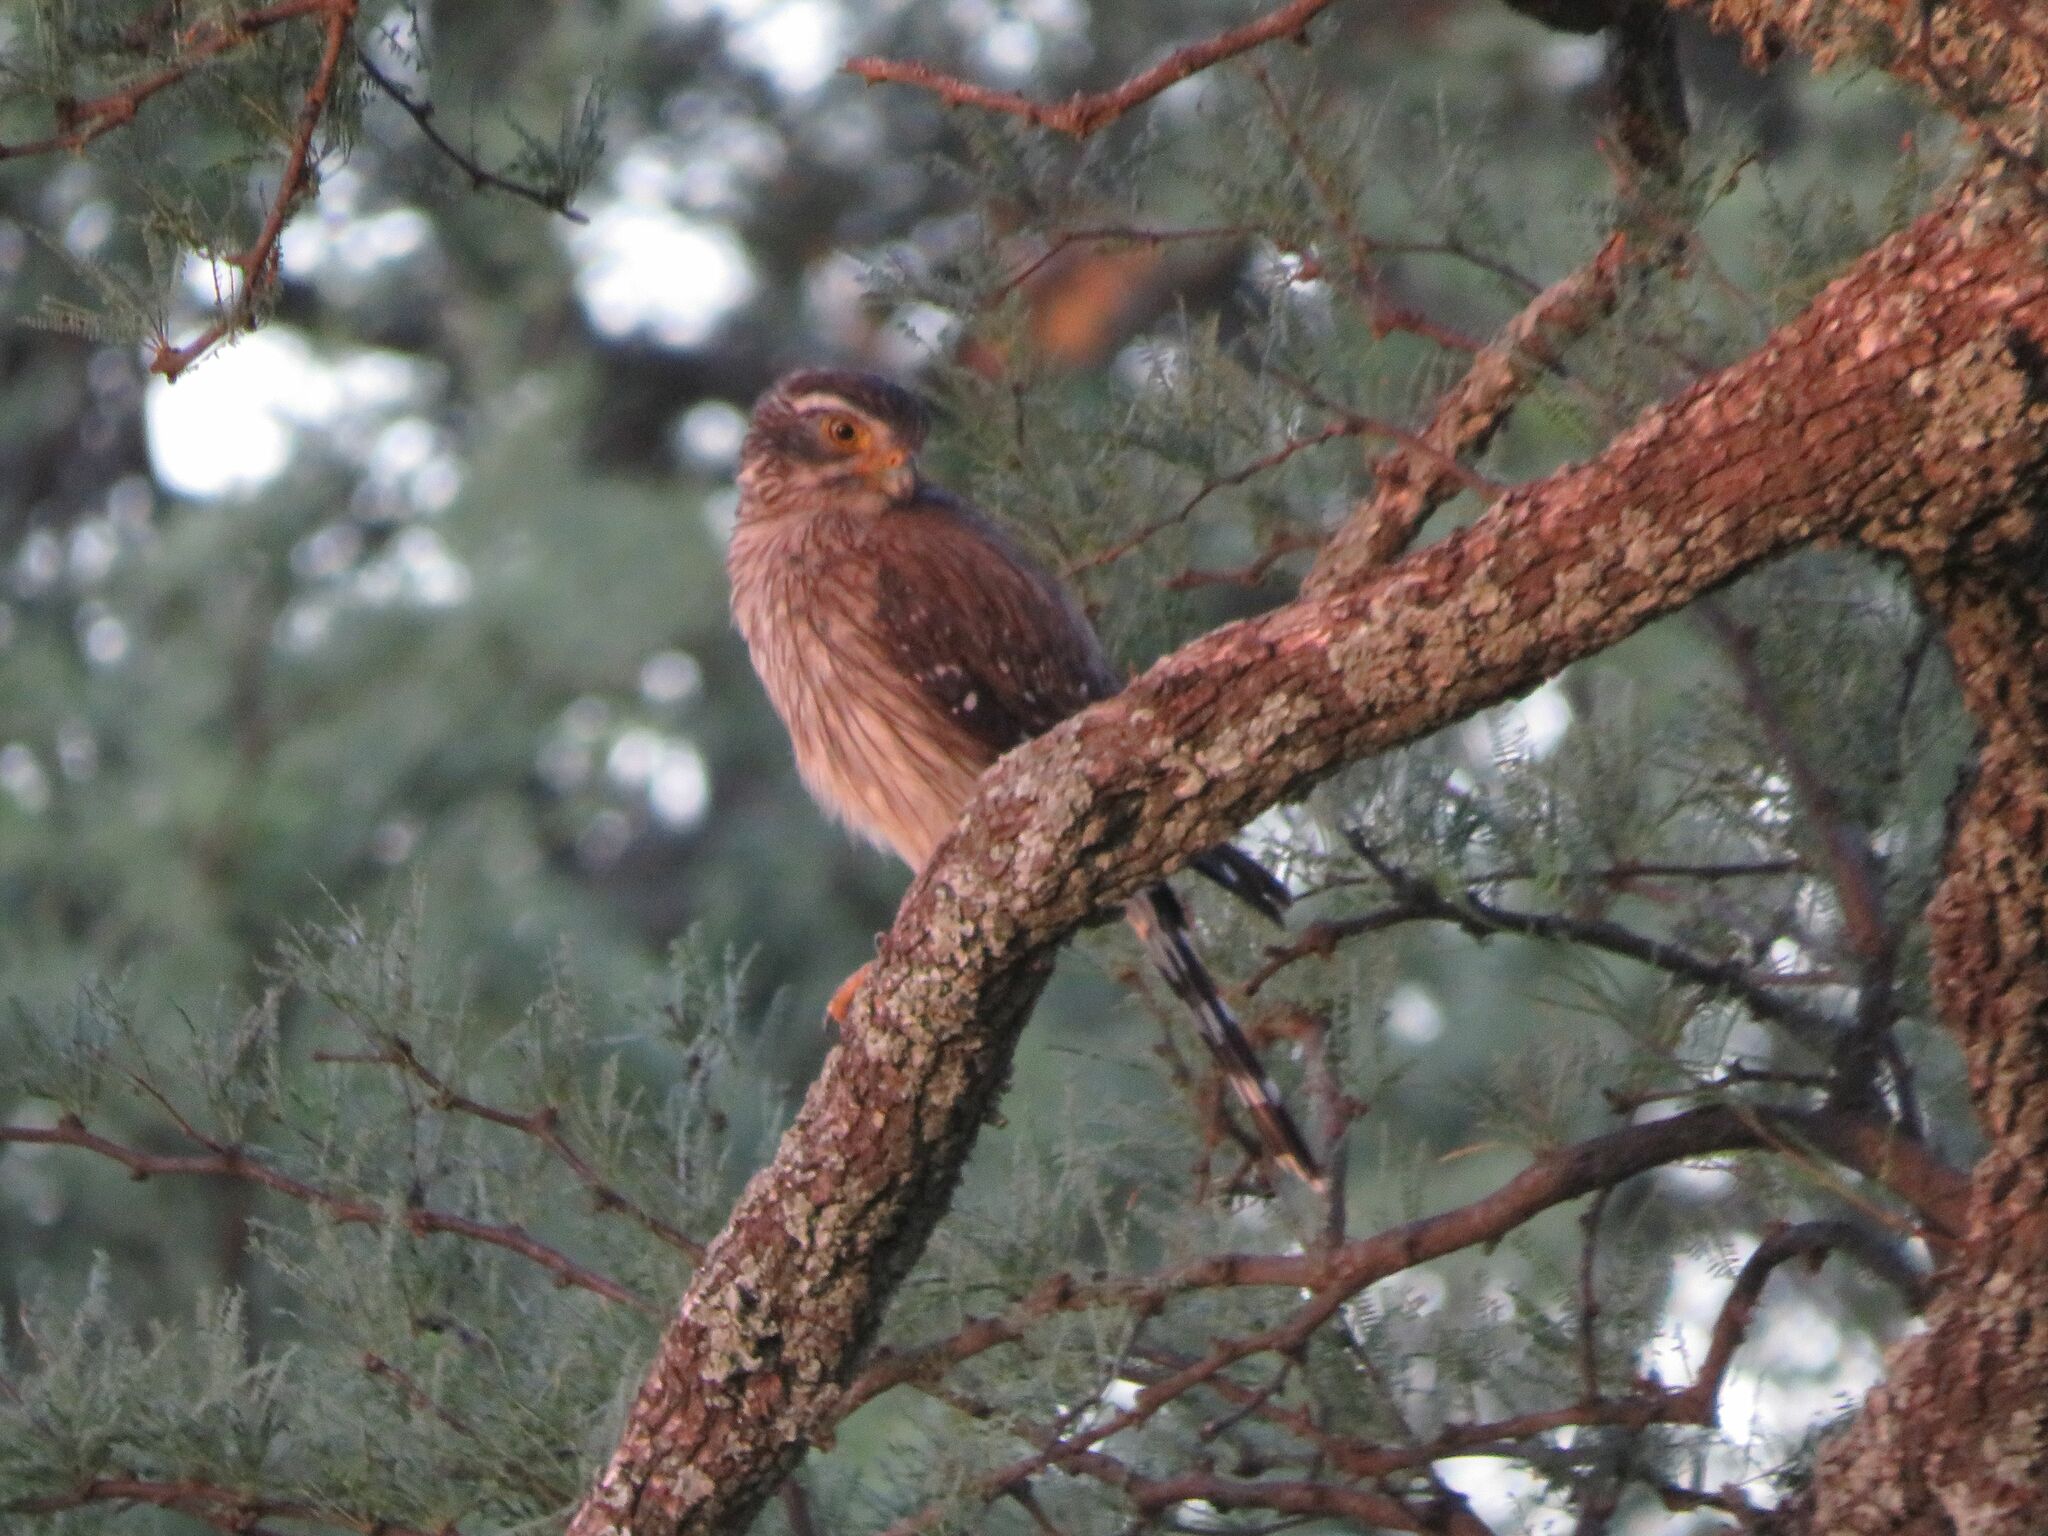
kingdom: Animalia
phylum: Chordata
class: Aves
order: Falconiformes
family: Falconidae
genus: Spiziapteryx
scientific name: Spiziapteryx circumcincta
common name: Spot-winged falconet
